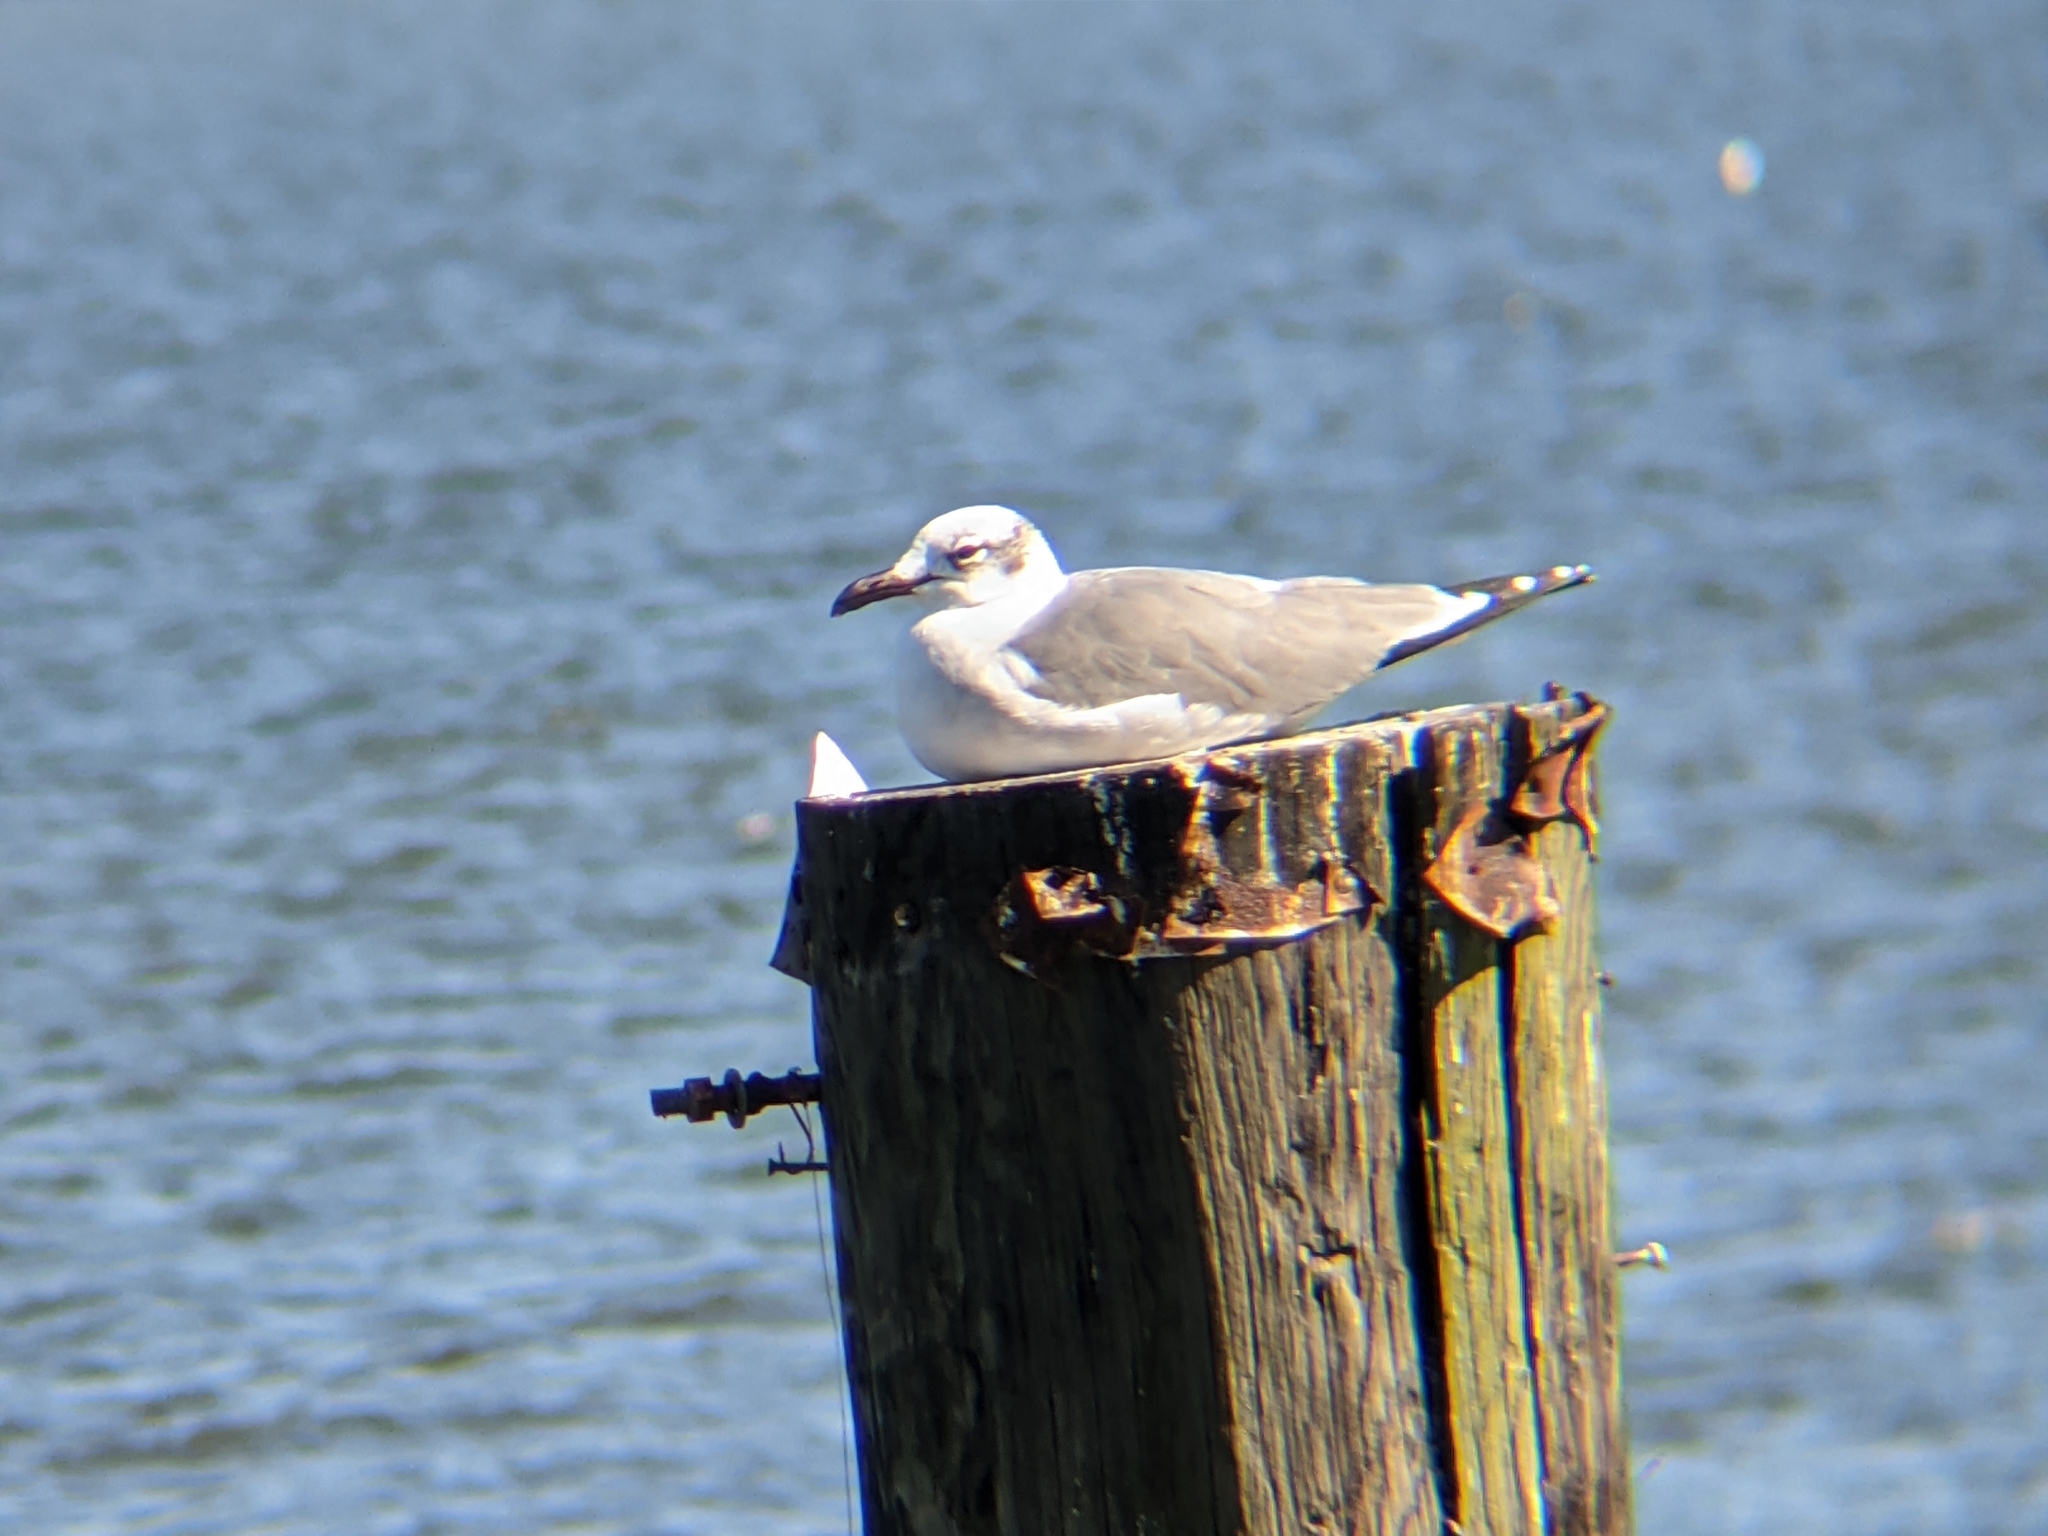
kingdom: Animalia
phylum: Chordata
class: Aves
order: Charadriiformes
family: Laridae
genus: Leucophaeus
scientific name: Leucophaeus atricilla
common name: Laughing gull
